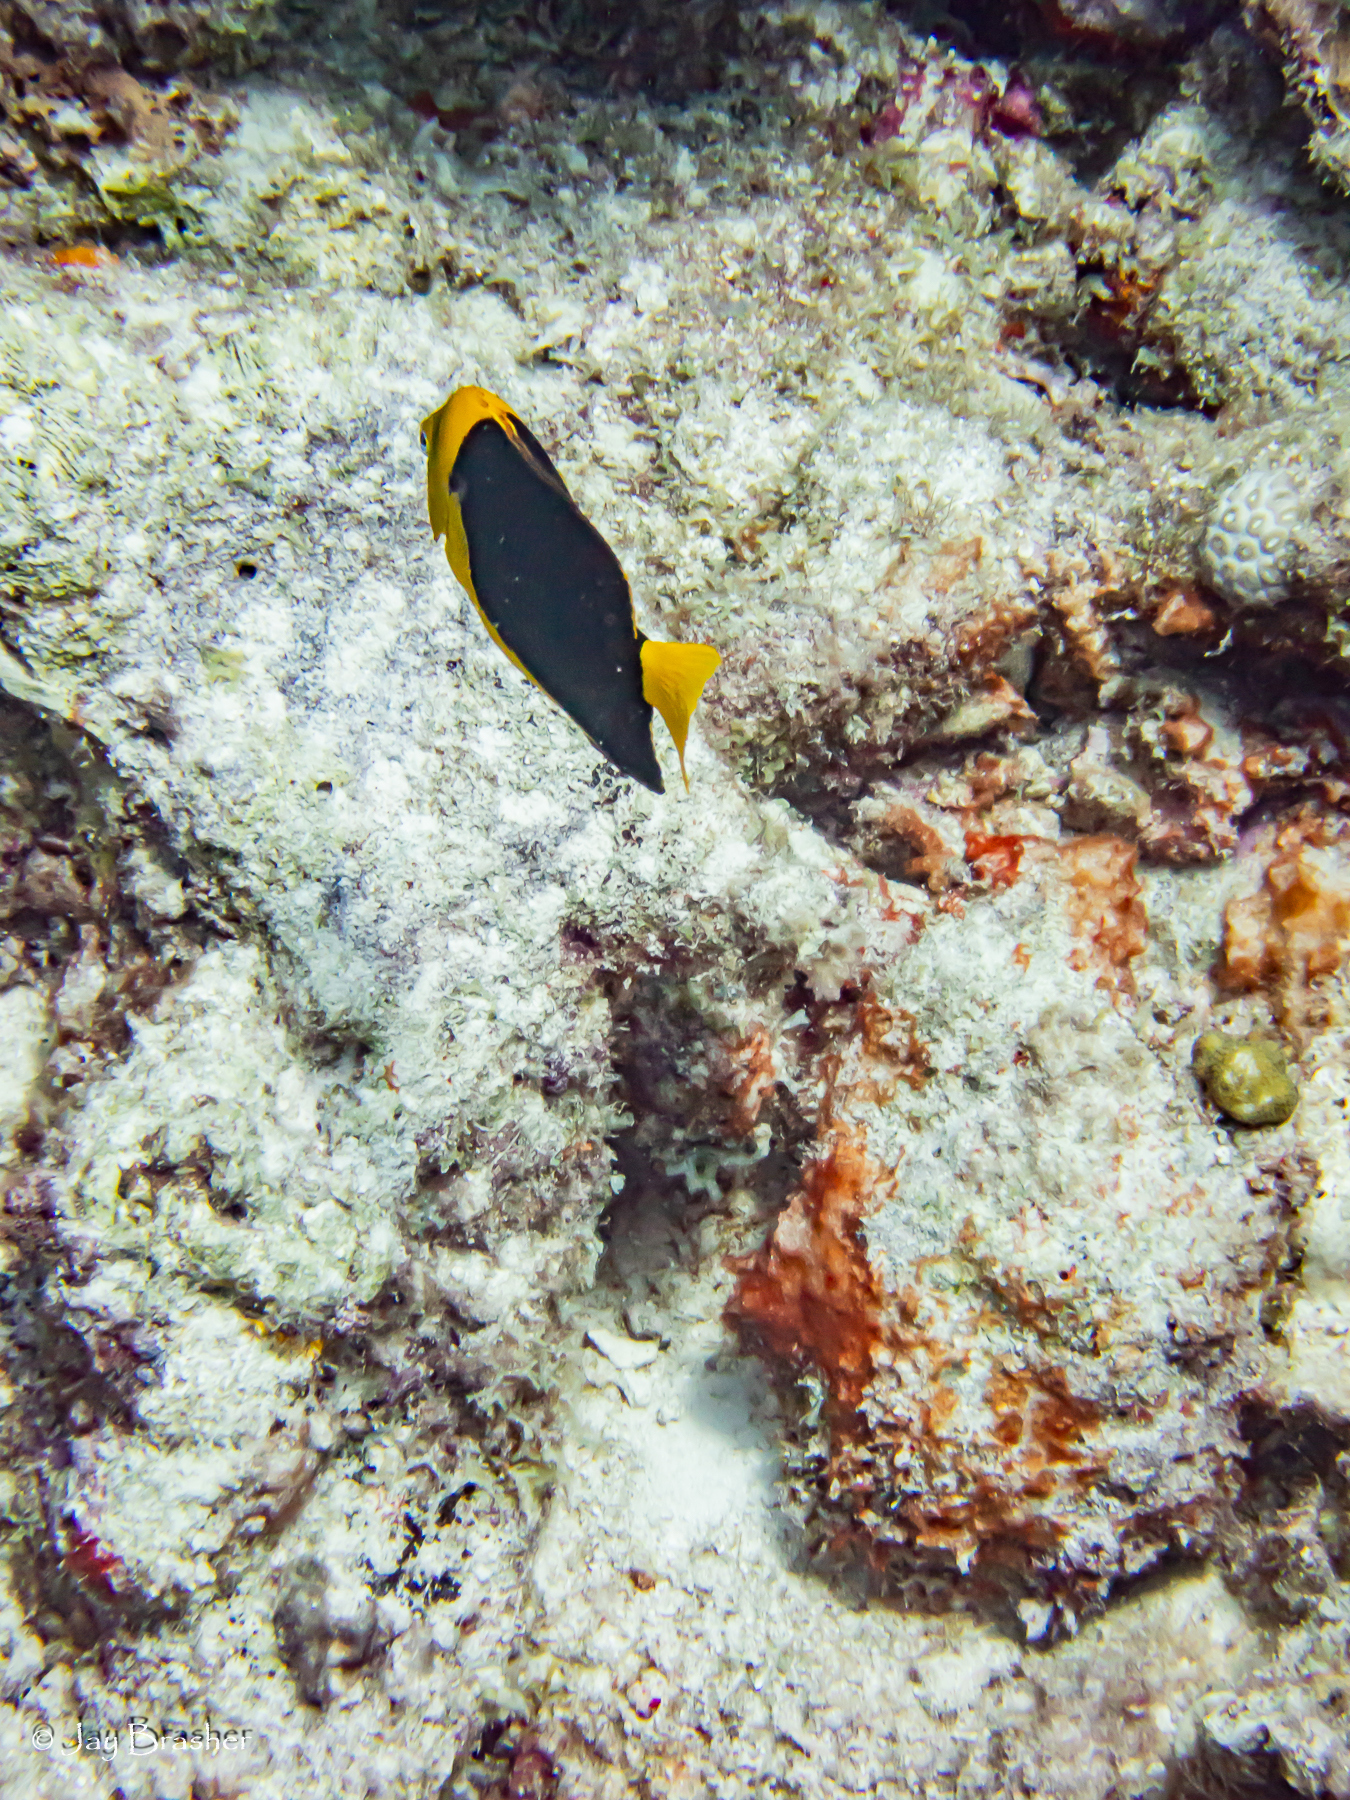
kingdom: Animalia
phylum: Chordata
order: Perciformes
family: Pomacanthidae
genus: Holacanthus
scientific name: Holacanthus tricolor
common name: Rock beauty
